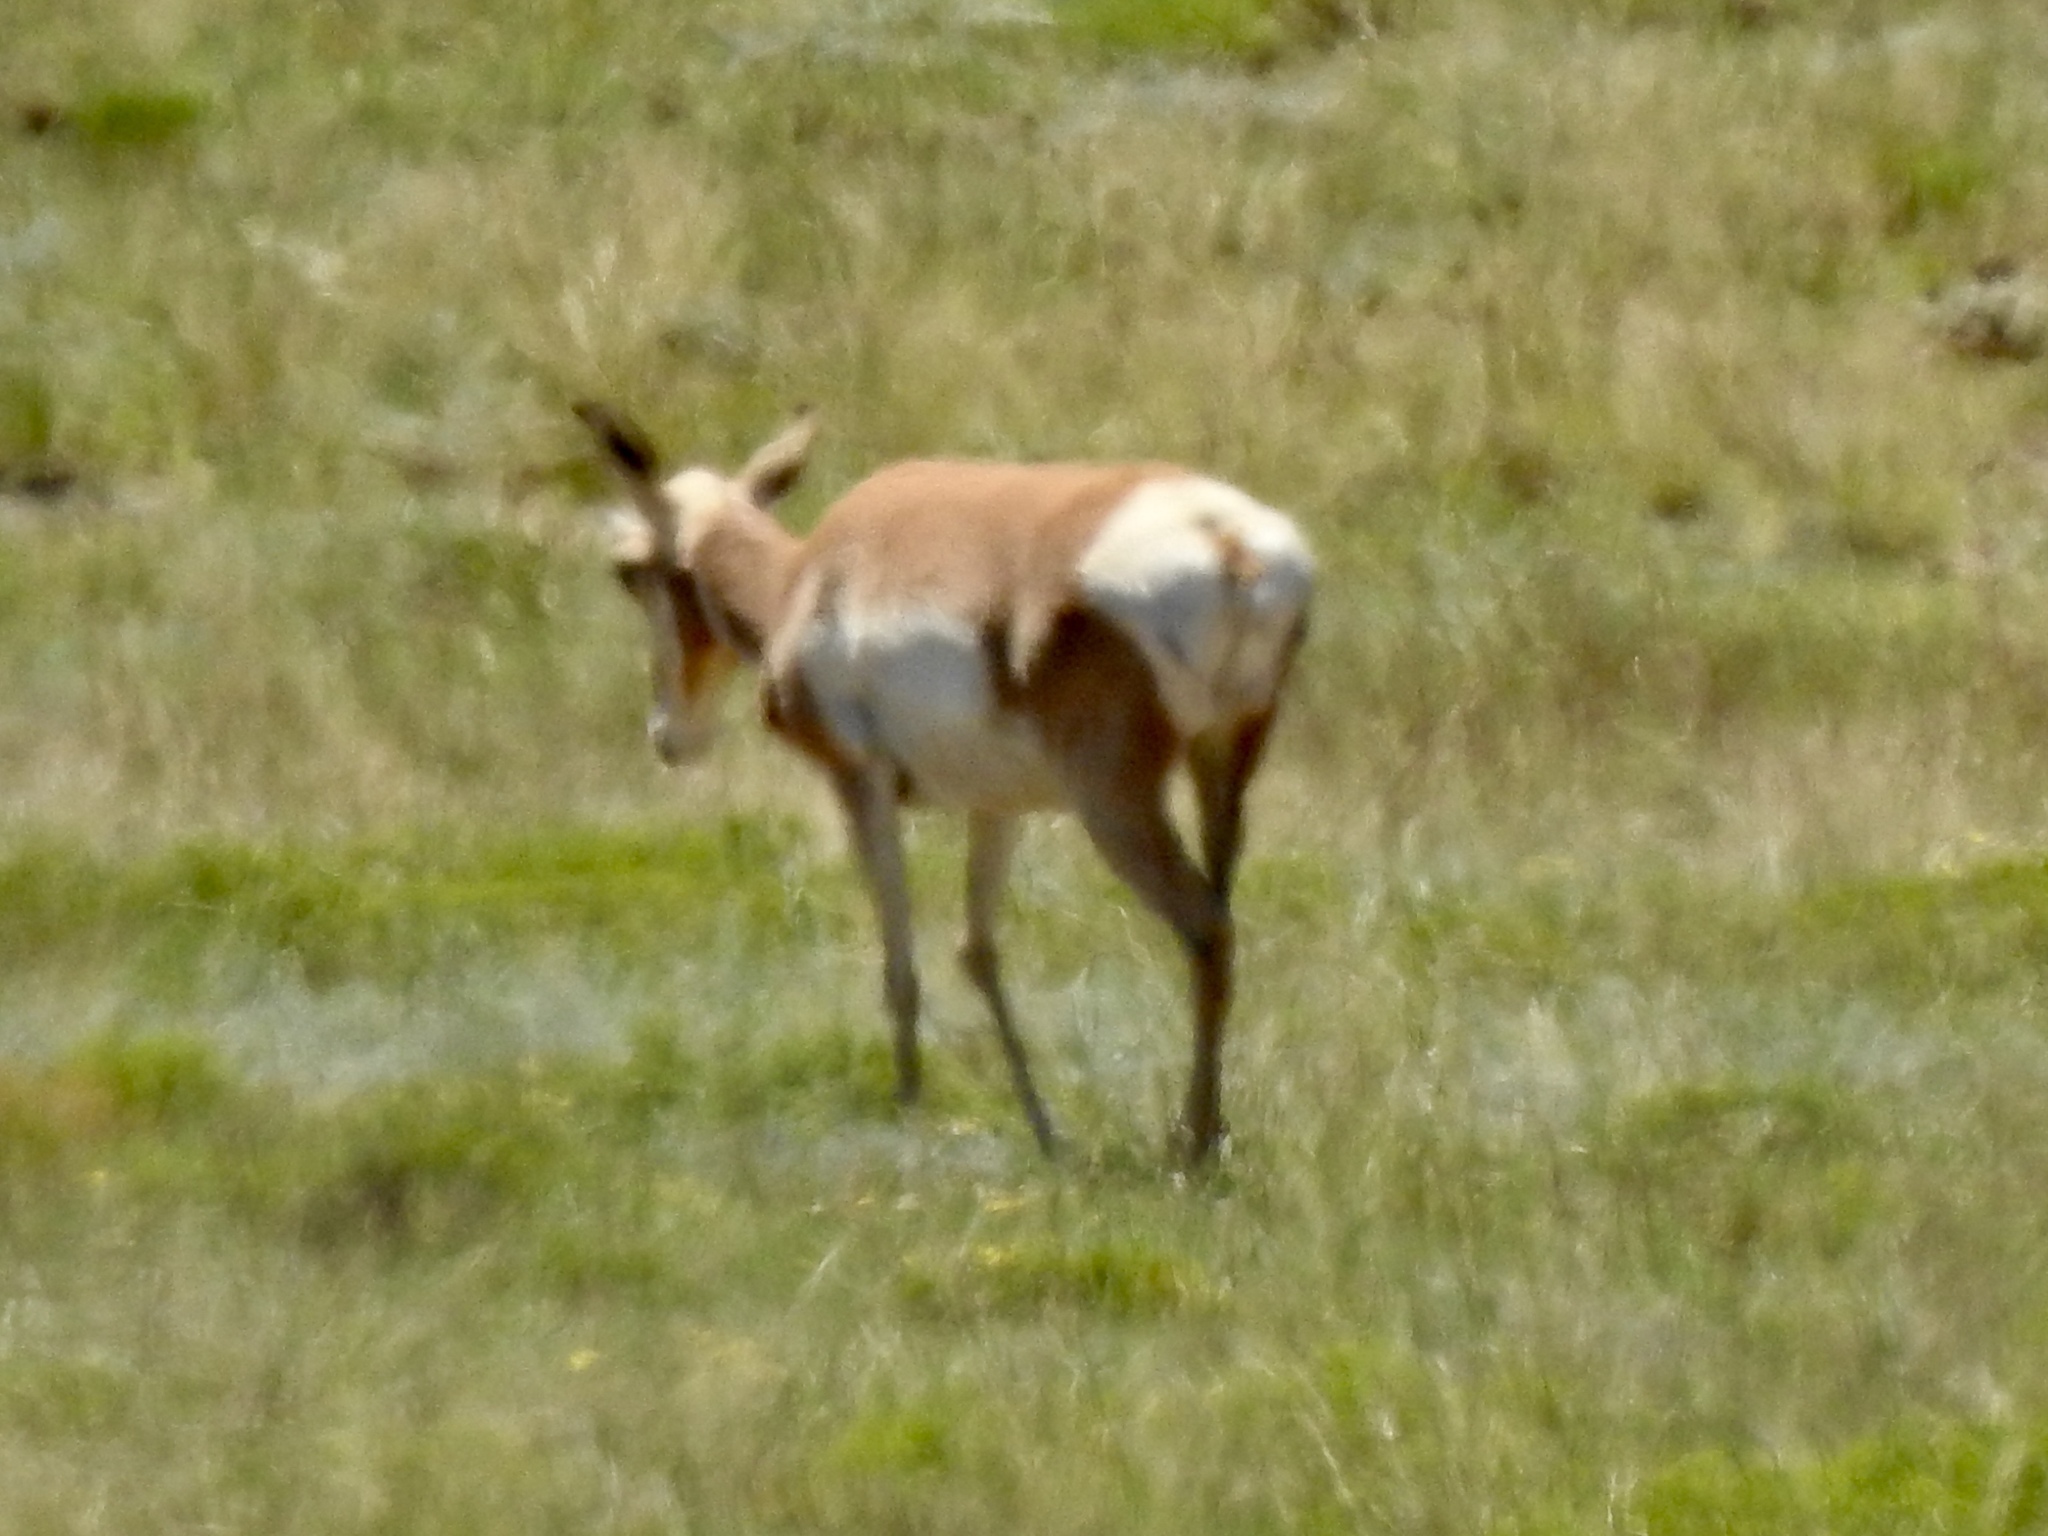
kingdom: Animalia
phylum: Chordata
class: Mammalia
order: Artiodactyla
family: Antilocapridae
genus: Antilocapra
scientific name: Antilocapra americana
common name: Pronghorn
